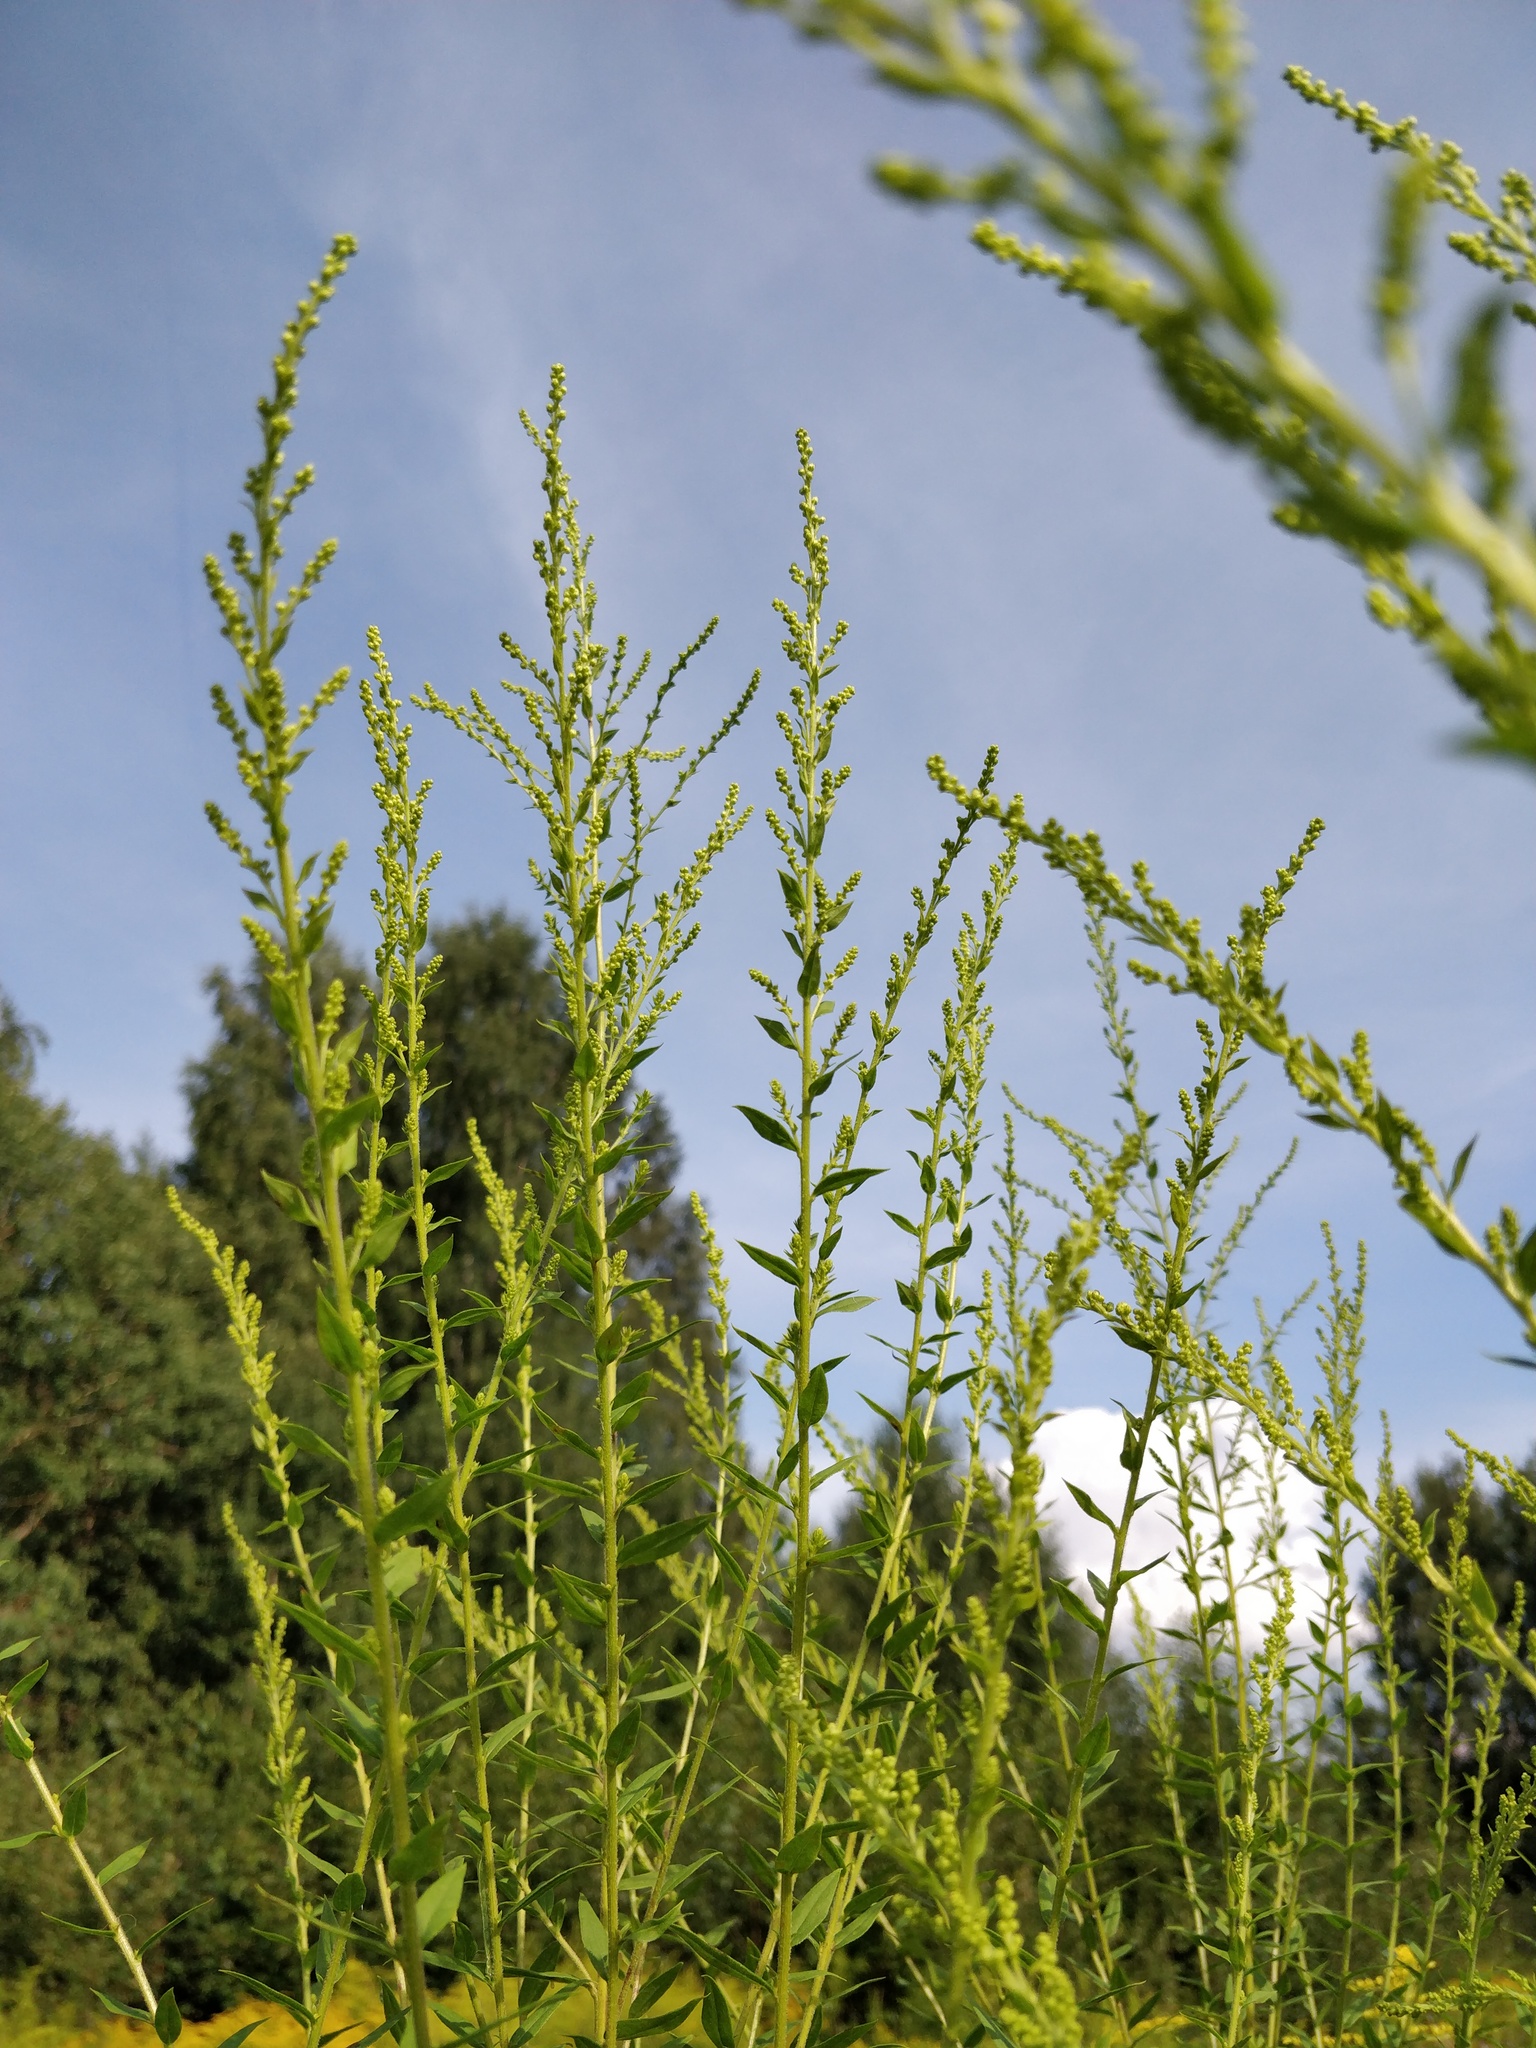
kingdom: Plantae
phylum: Tracheophyta
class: Magnoliopsida
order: Asterales
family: Asteraceae
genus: Solidago
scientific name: Solidago canadensis
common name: Canada goldenrod
